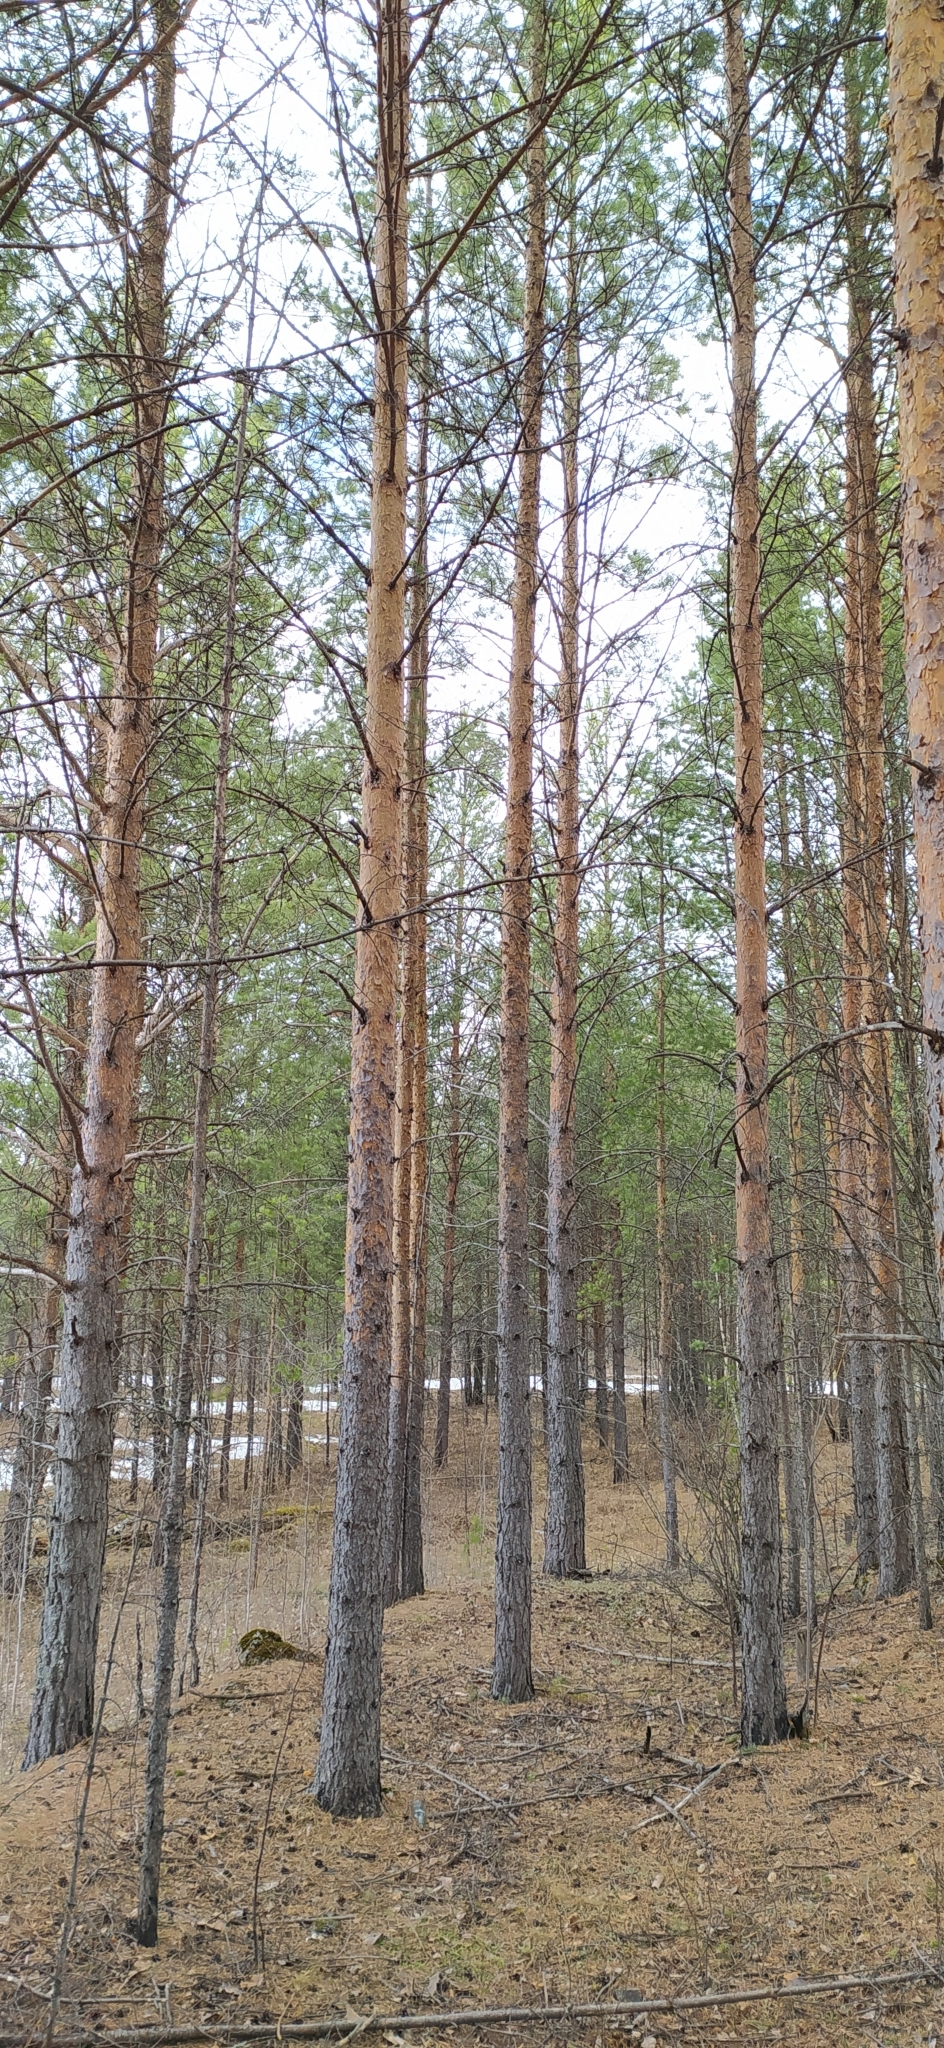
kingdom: Plantae
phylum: Tracheophyta
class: Pinopsida
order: Pinales
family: Pinaceae
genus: Pinus
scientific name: Pinus sylvestris
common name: Scots pine
